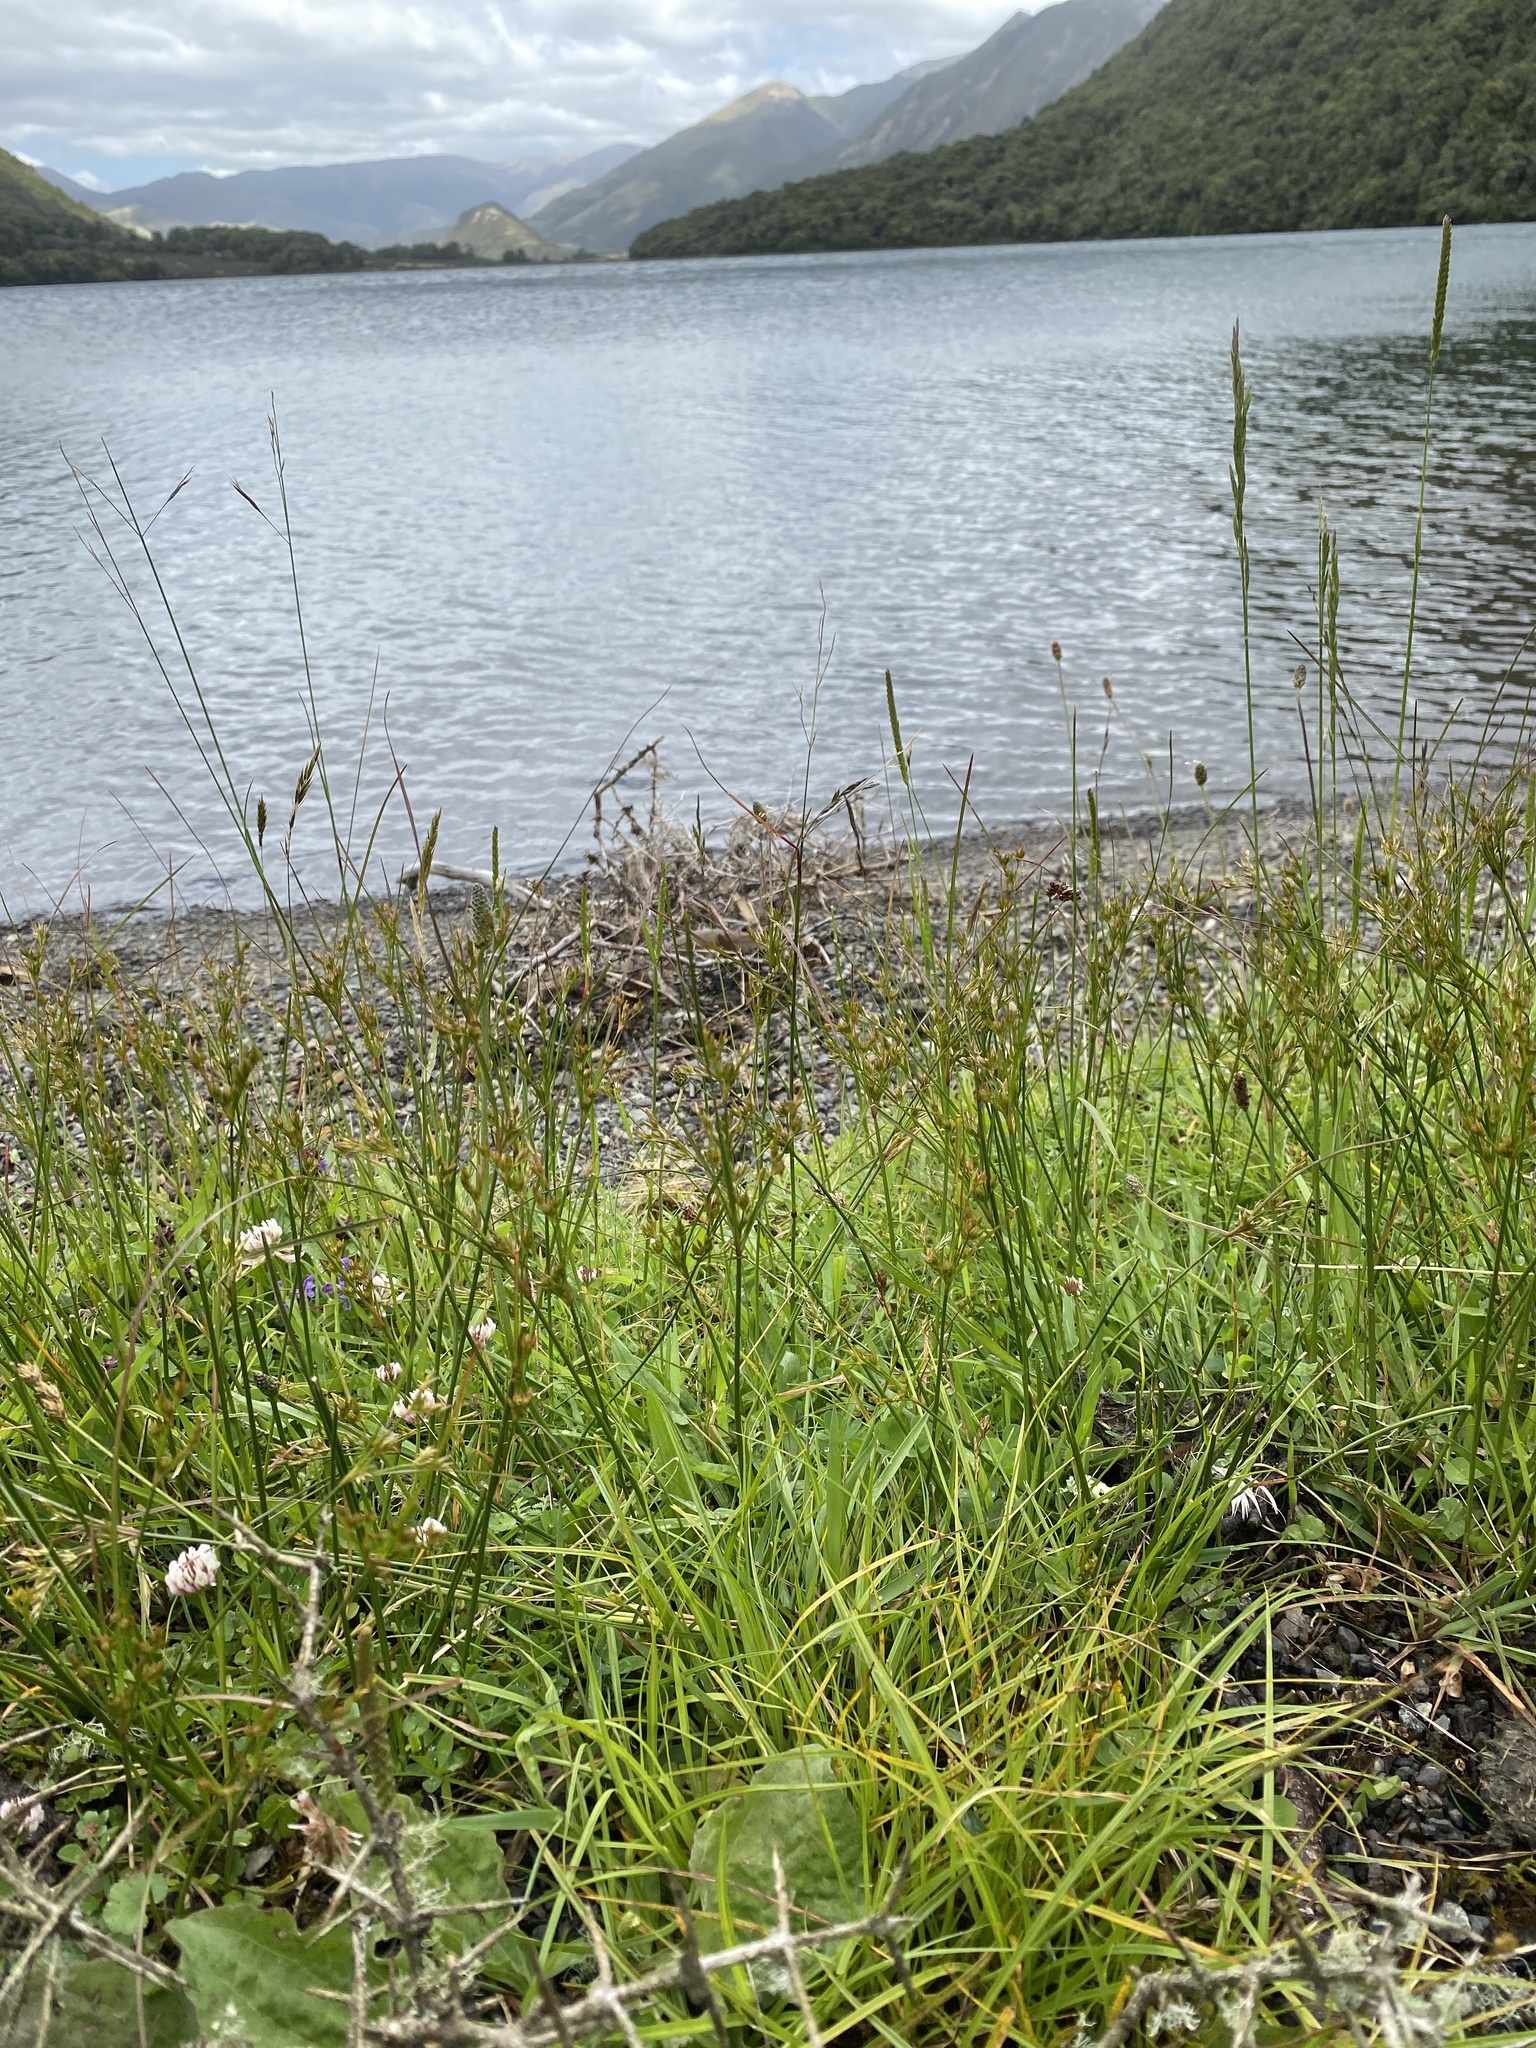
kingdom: Plantae
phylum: Tracheophyta
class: Liliopsida
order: Poales
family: Juncaceae
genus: Juncus
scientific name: Juncus tenuis
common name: Slender rush
